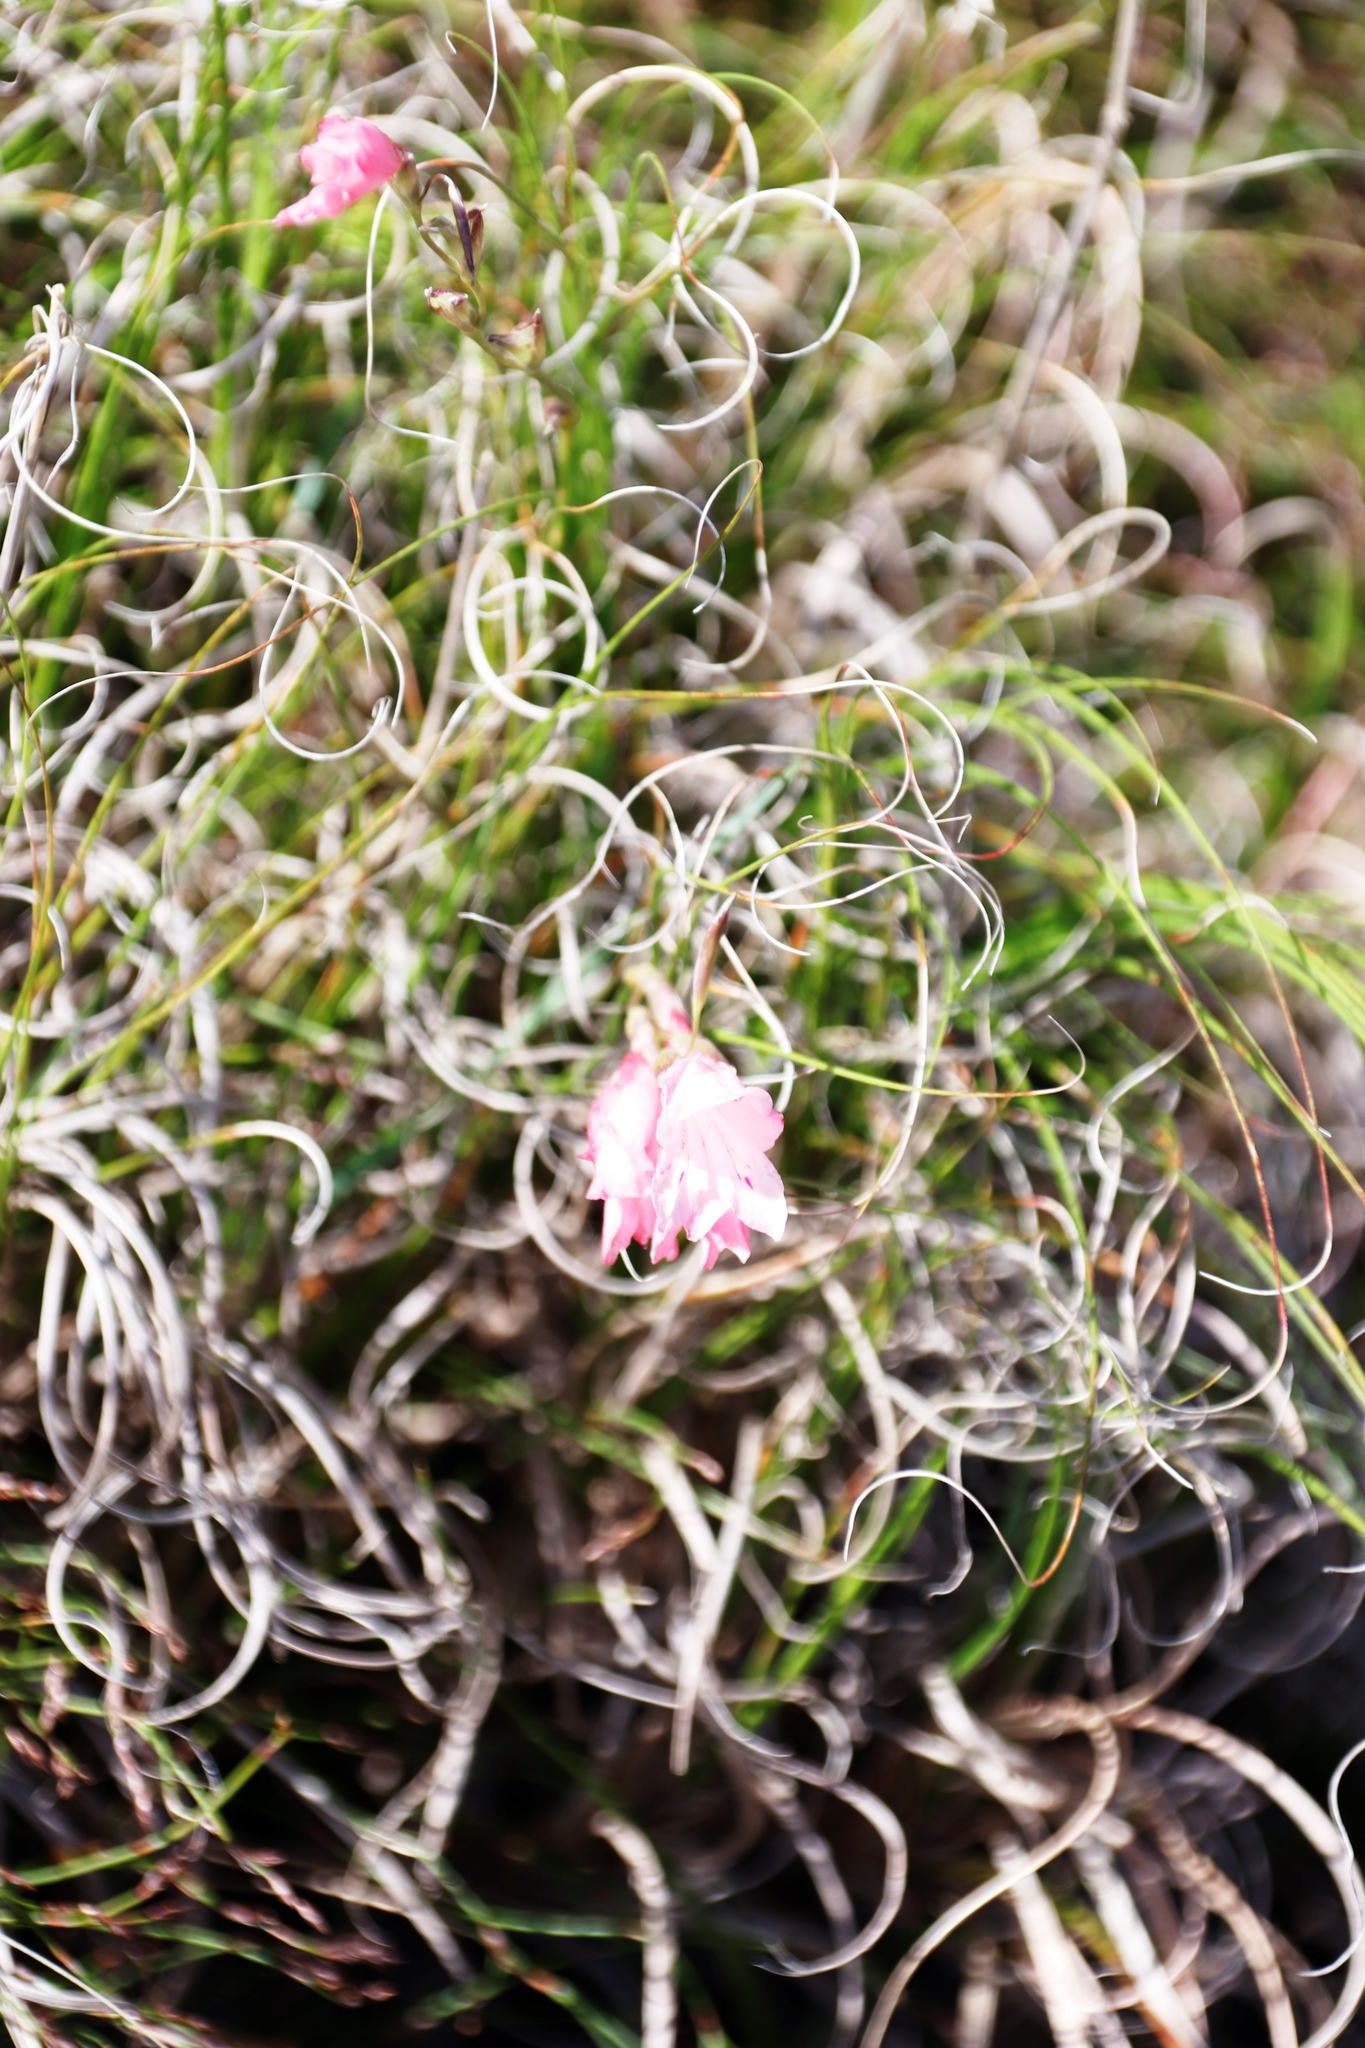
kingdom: Plantae
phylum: Tracheophyta
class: Liliopsida
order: Asparagales
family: Iridaceae
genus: Gladiolus
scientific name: Gladiolus brevifolius
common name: March pypie
